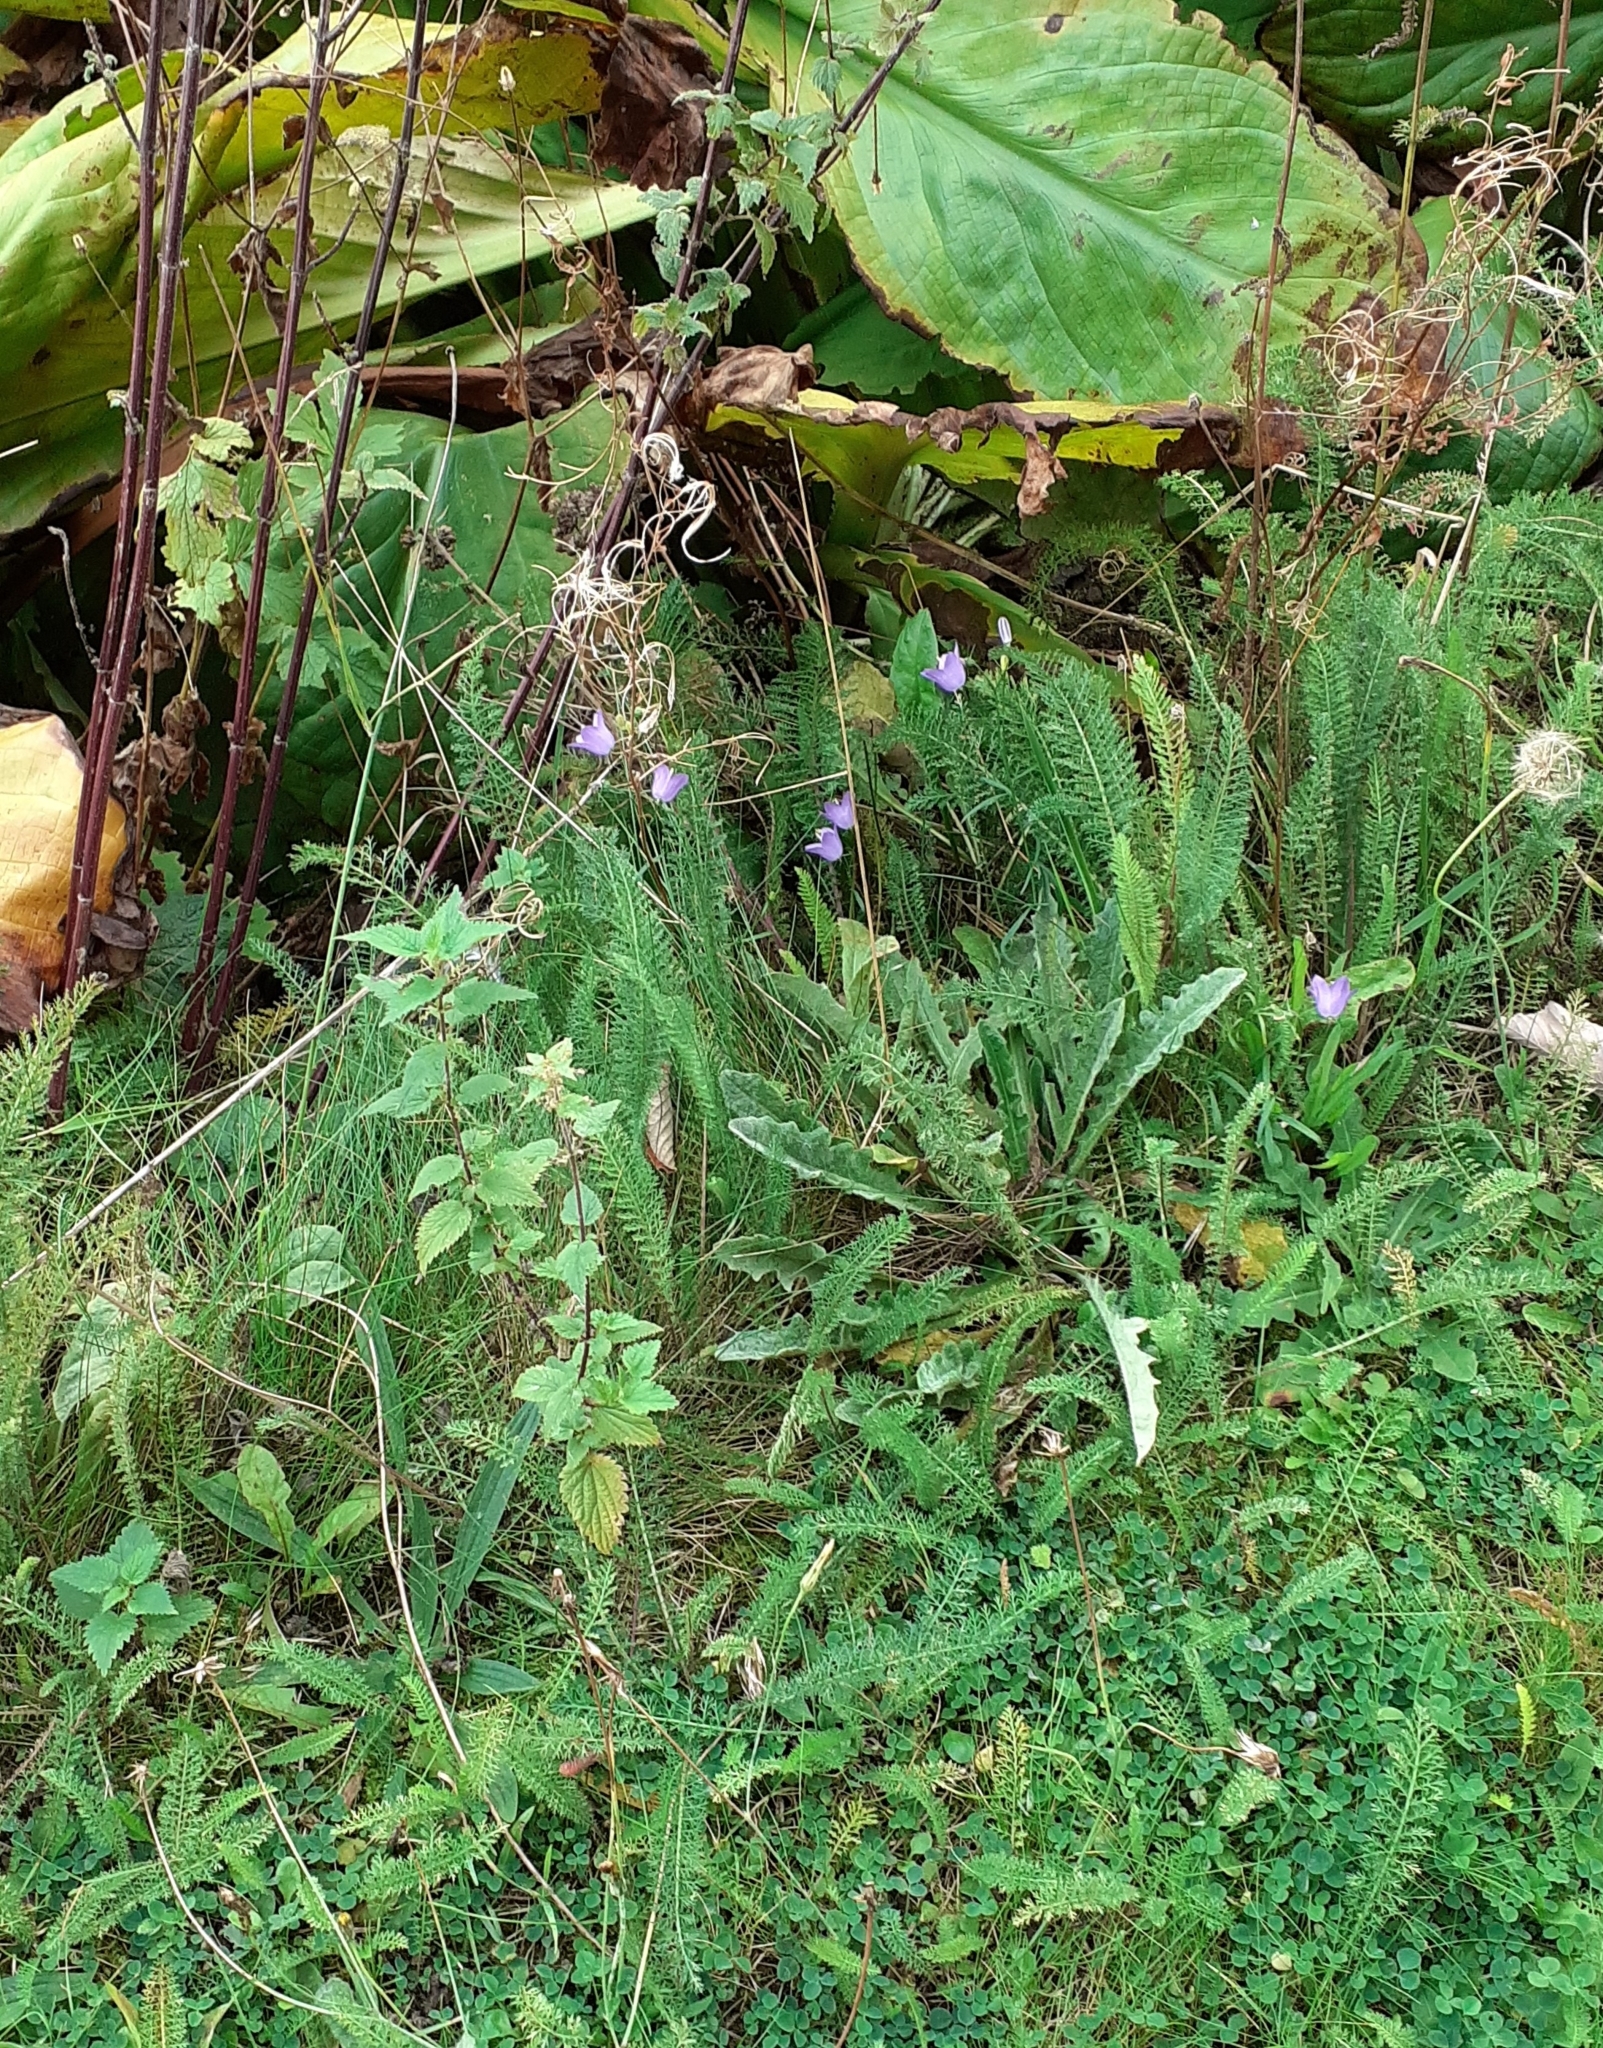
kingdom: Plantae
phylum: Tracheophyta
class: Magnoliopsida
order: Asterales
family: Campanulaceae
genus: Campanula
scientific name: Campanula rotundifolia
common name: Harebell
